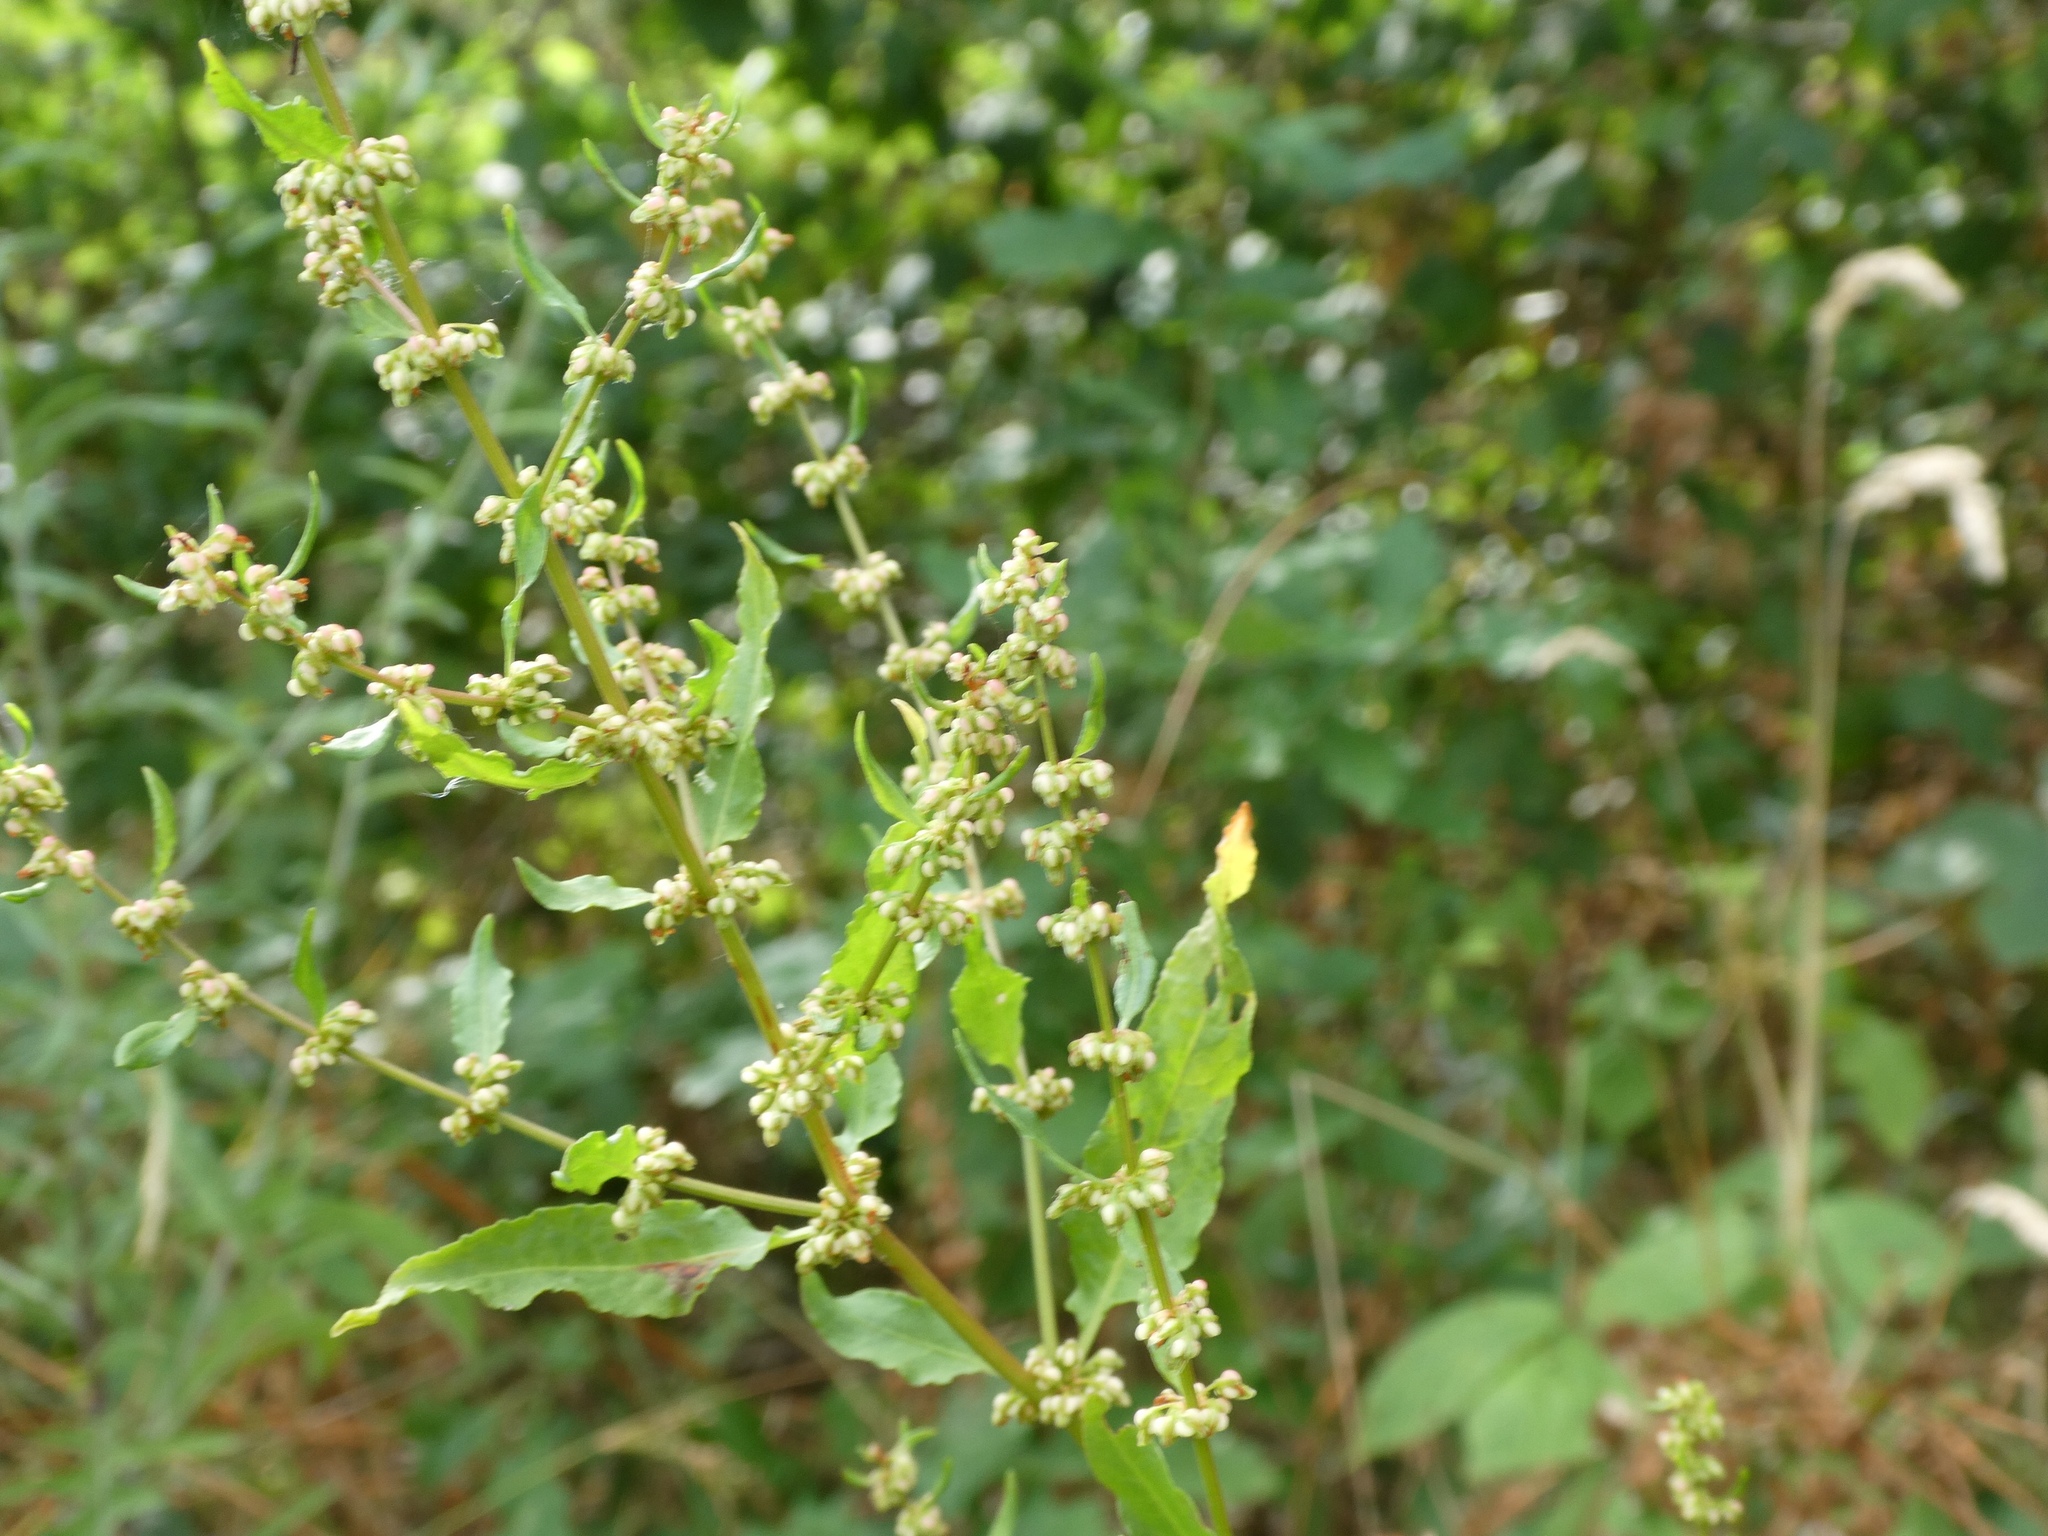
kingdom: Plantae
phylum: Tracheophyta
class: Magnoliopsida
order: Caryophyllales
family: Polygonaceae
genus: Rumex
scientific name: Rumex conglomeratus
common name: Clustered dock
